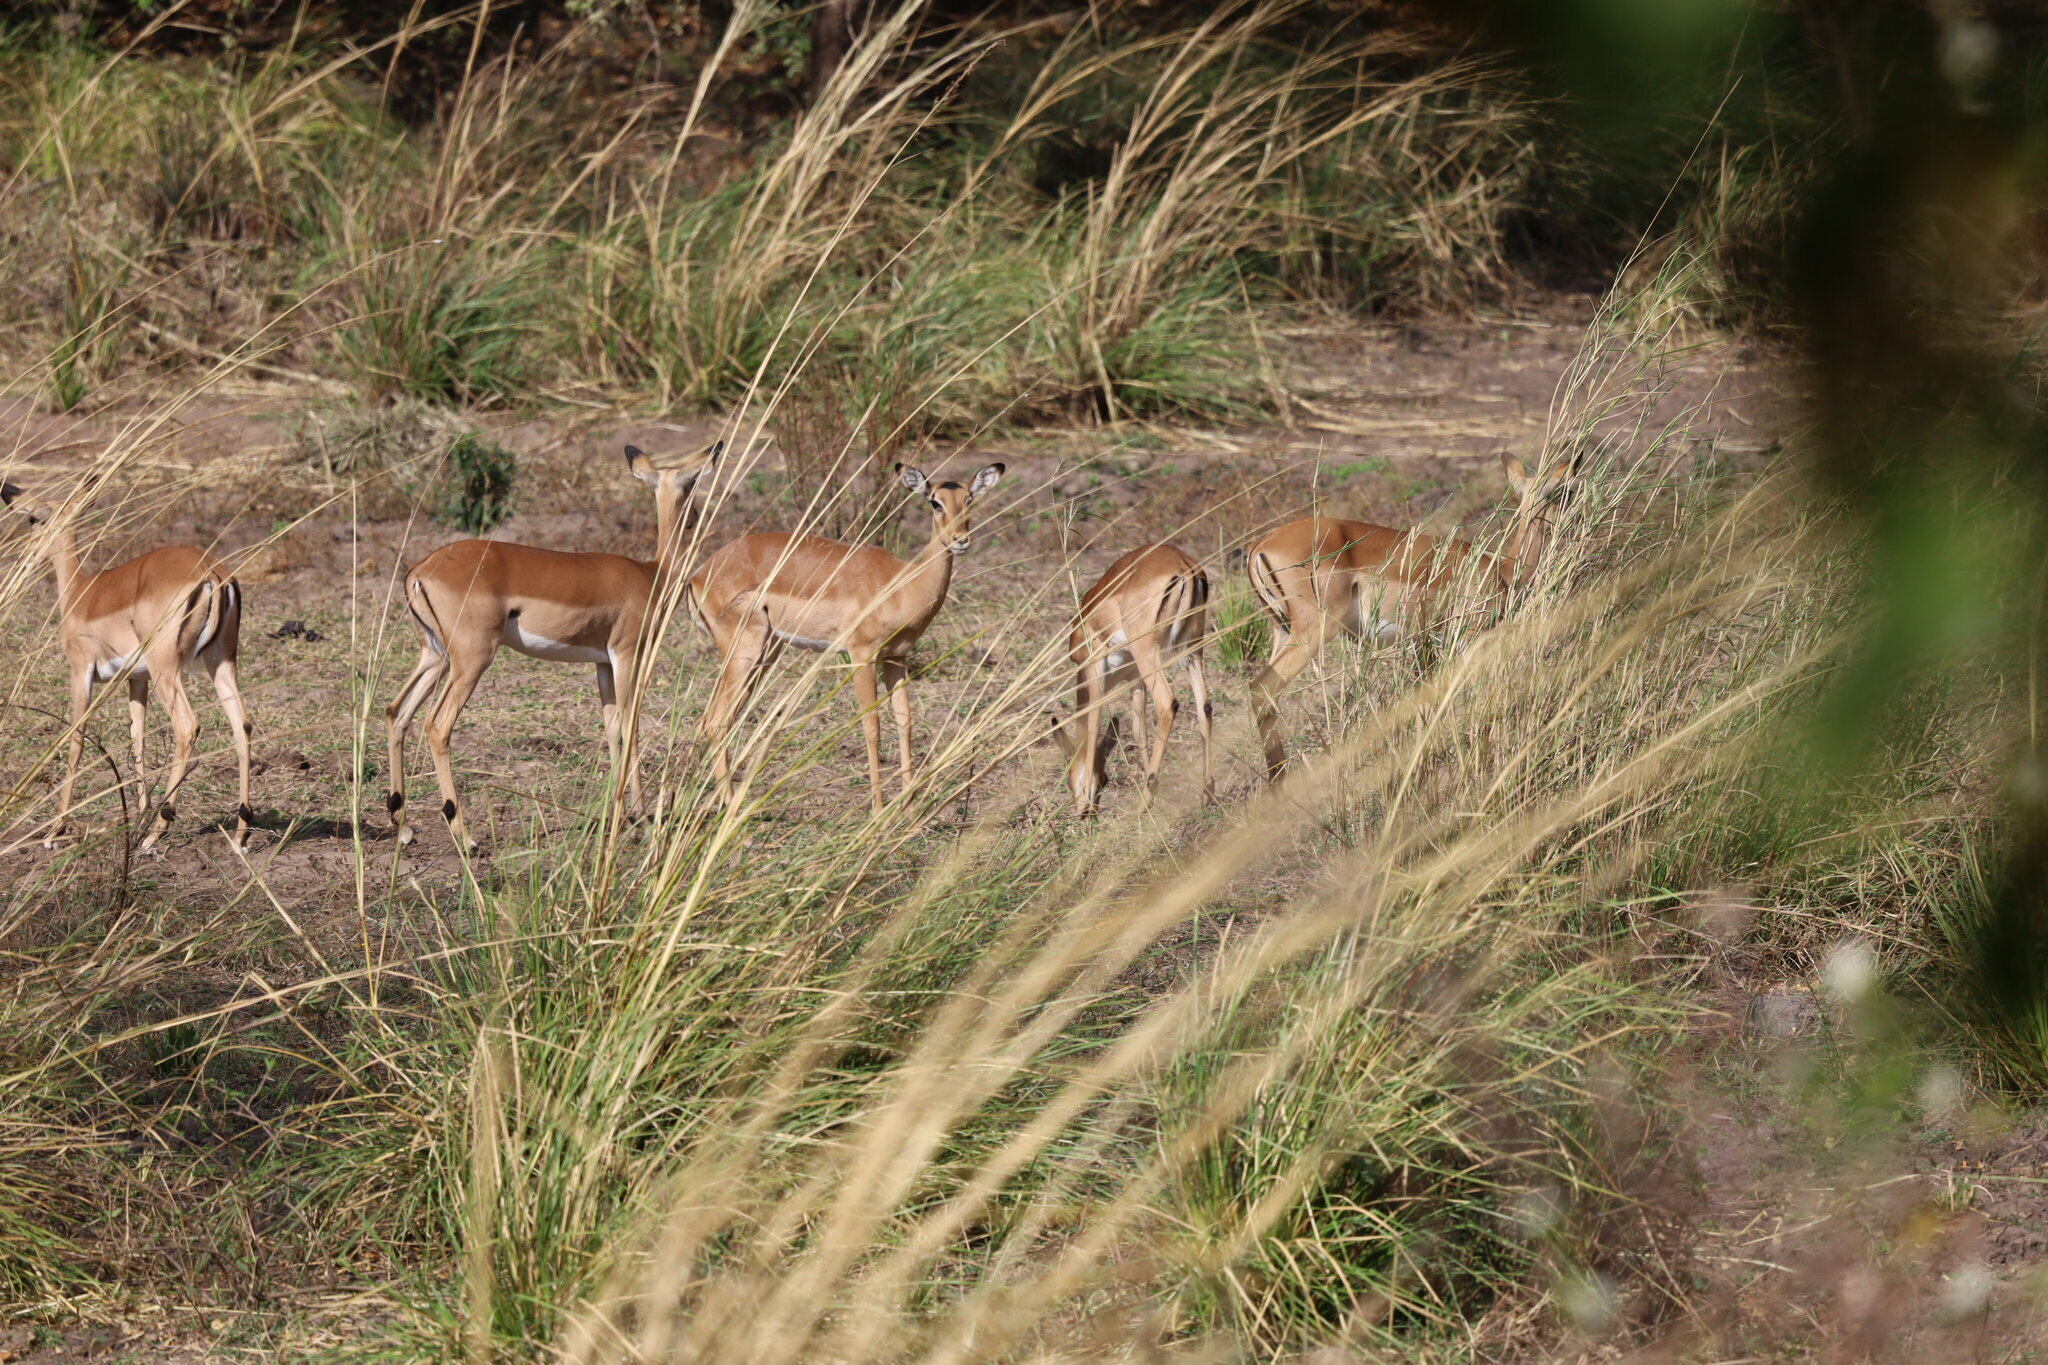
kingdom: Animalia
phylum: Chordata
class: Mammalia
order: Artiodactyla
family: Bovidae
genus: Aepyceros
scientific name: Aepyceros melampus
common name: Impala
